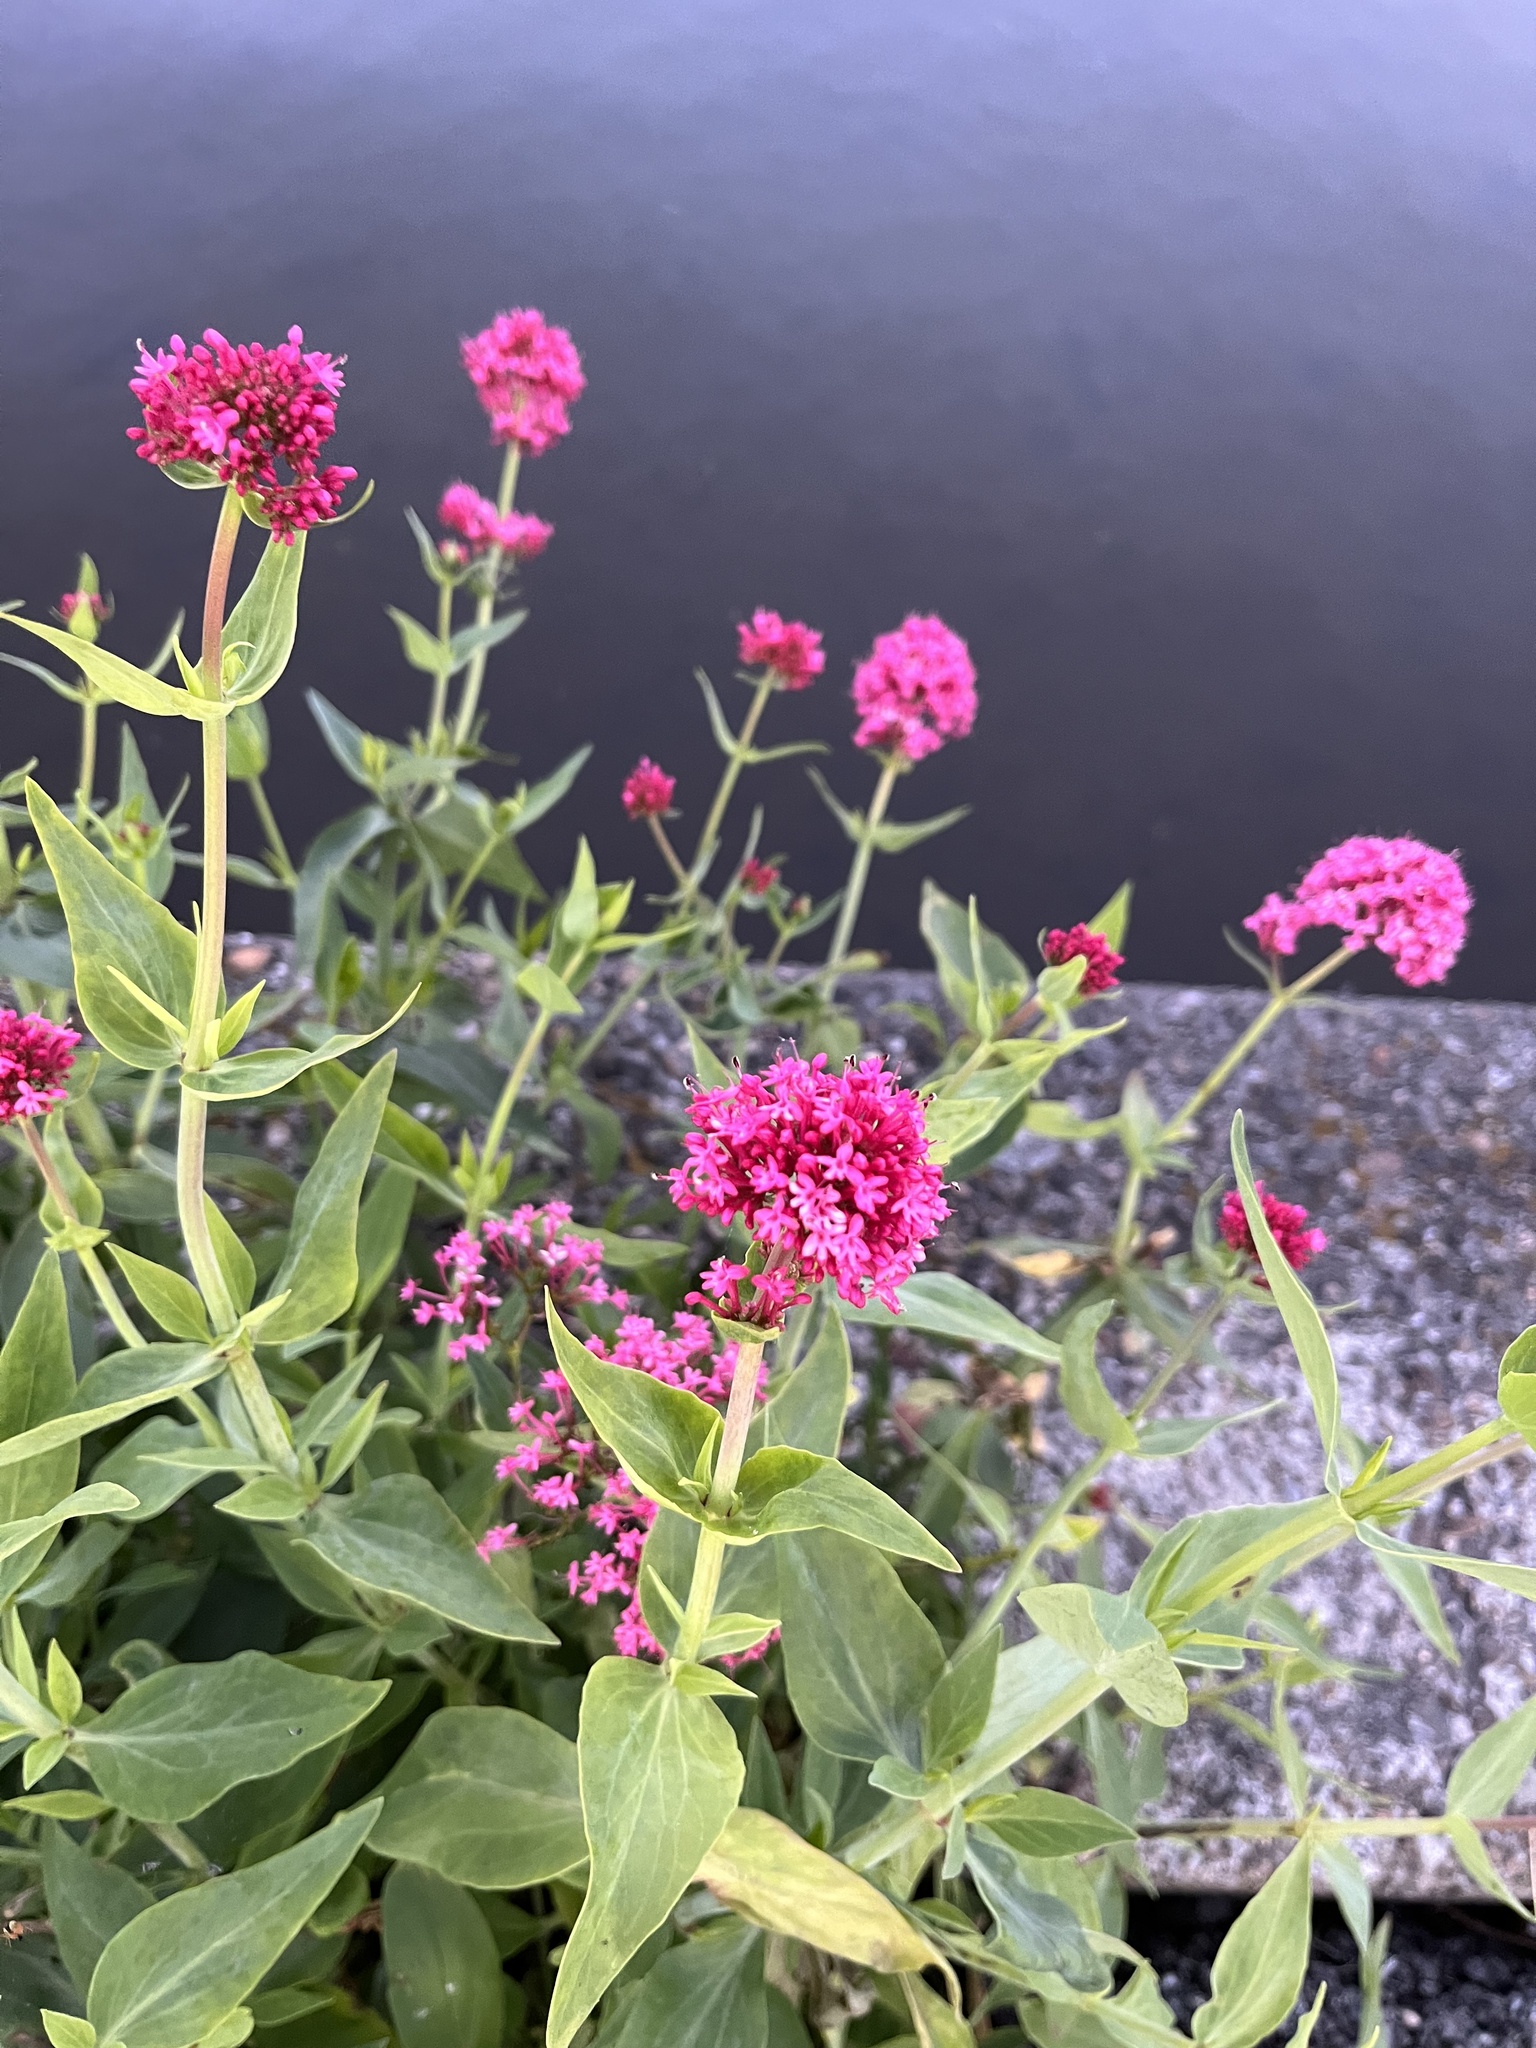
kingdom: Plantae
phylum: Tracheophyta
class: Magnoliopsida
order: Dipsacales
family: Caprifoliaceae
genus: Centranthus
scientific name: Centranthus ruber
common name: Red valerian
